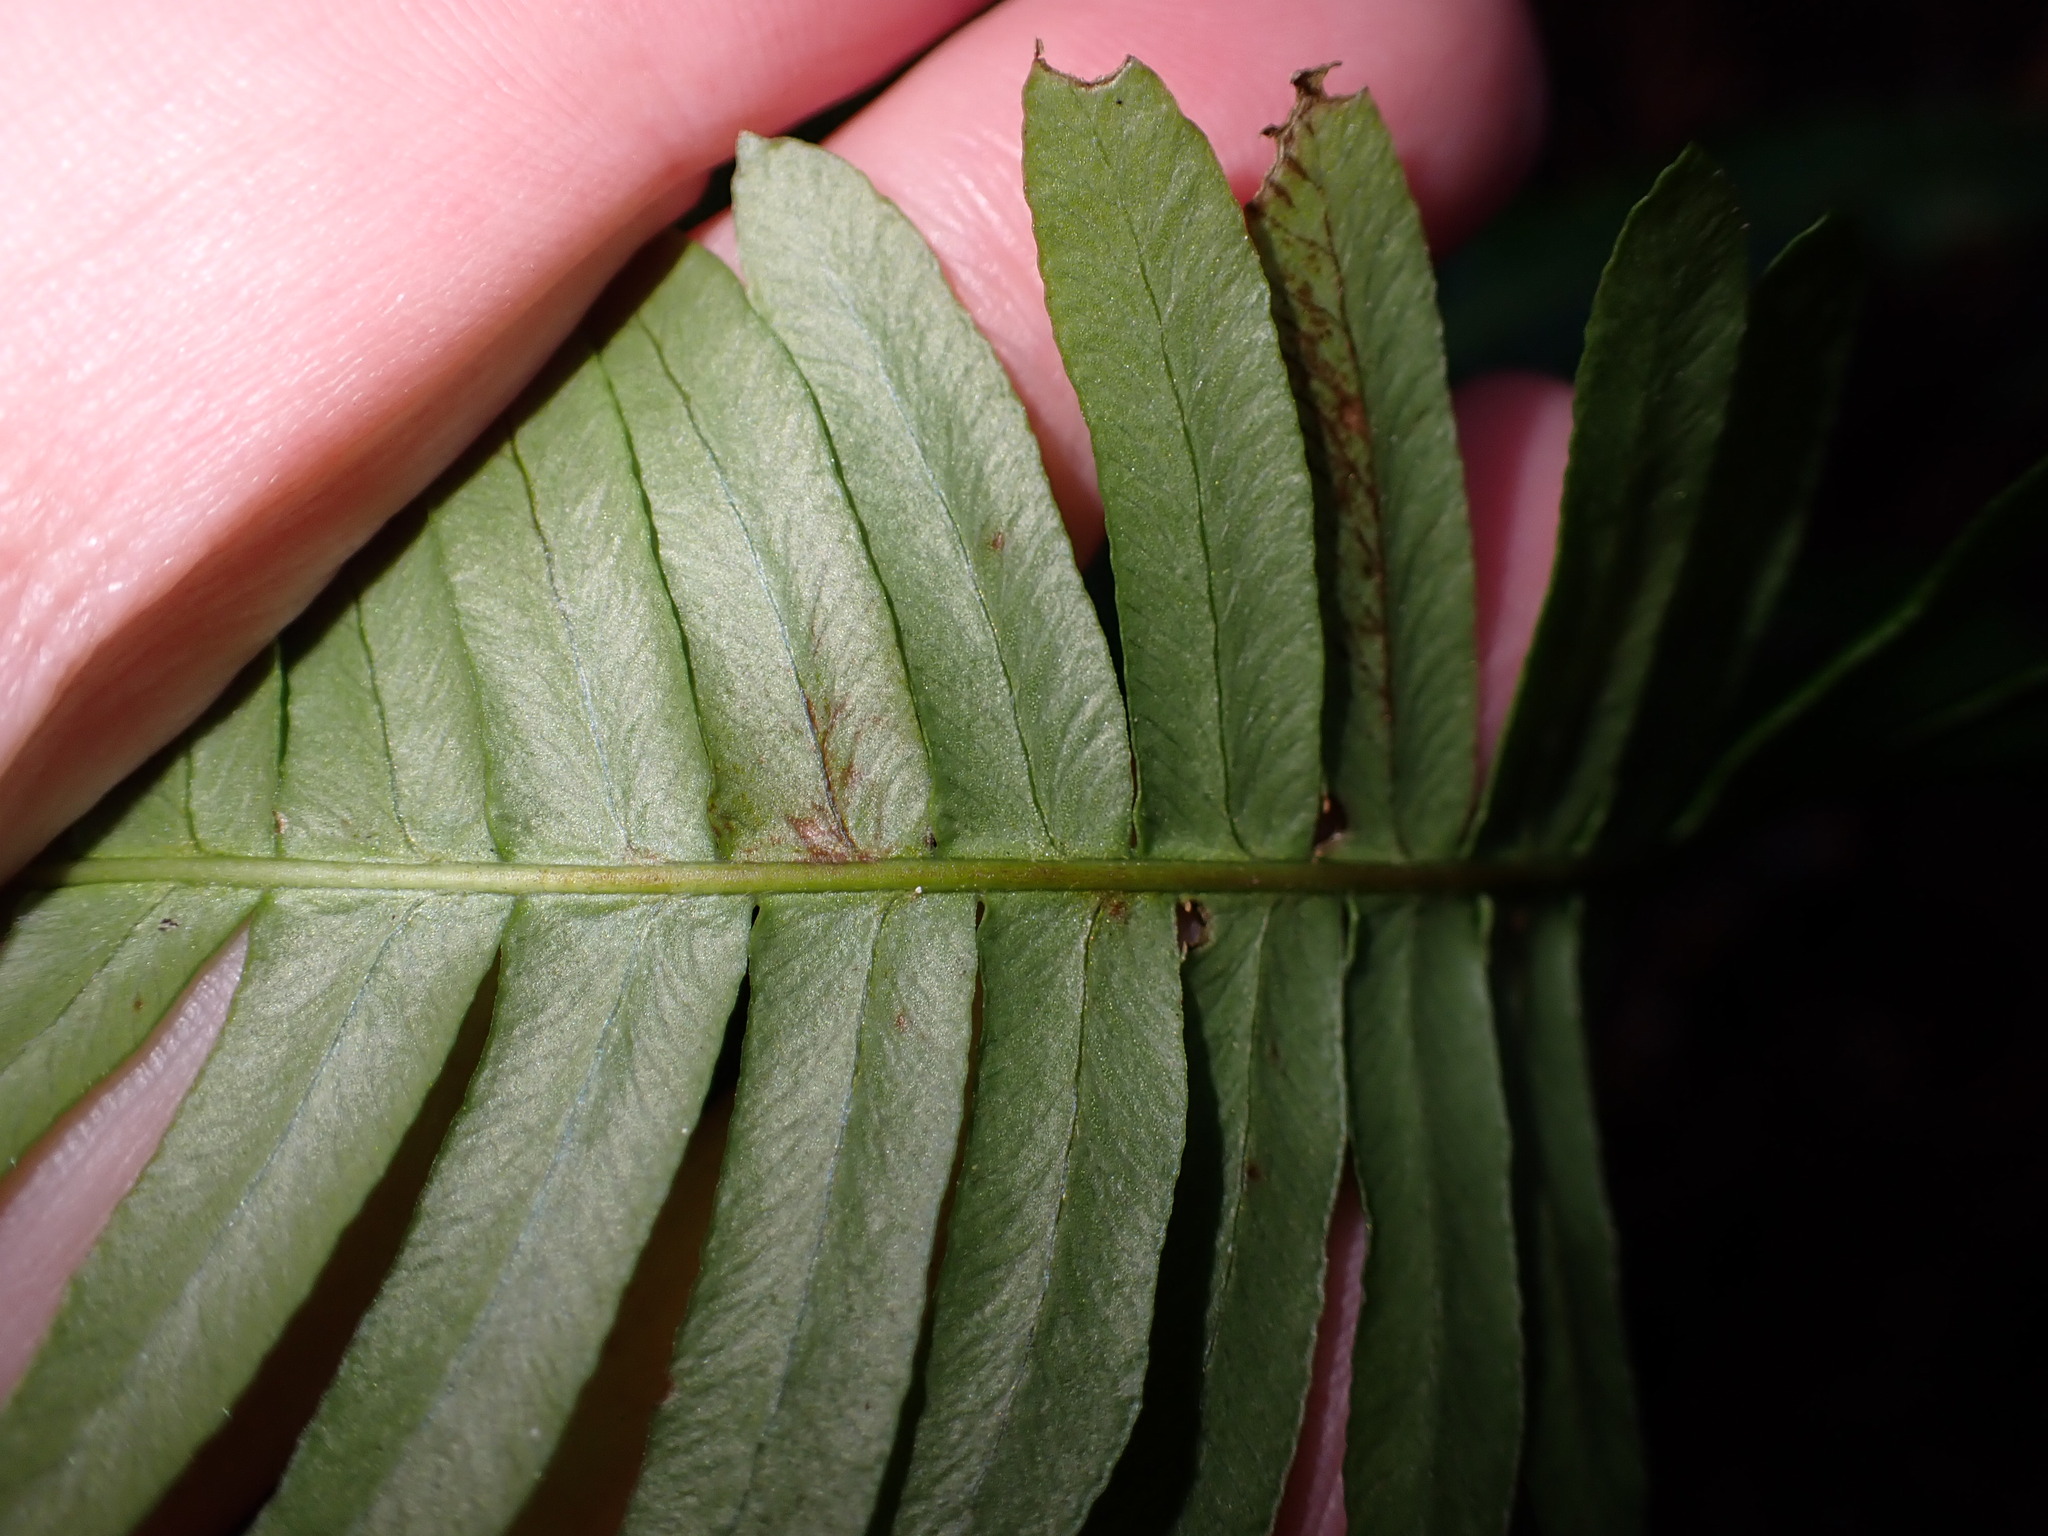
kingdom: Plantae
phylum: Tracheophyta
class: Polypodiopsida
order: Polypodiales
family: Blechnaceae
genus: Struthiopteris
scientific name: Struthiopteris spicant
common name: Deer fern
